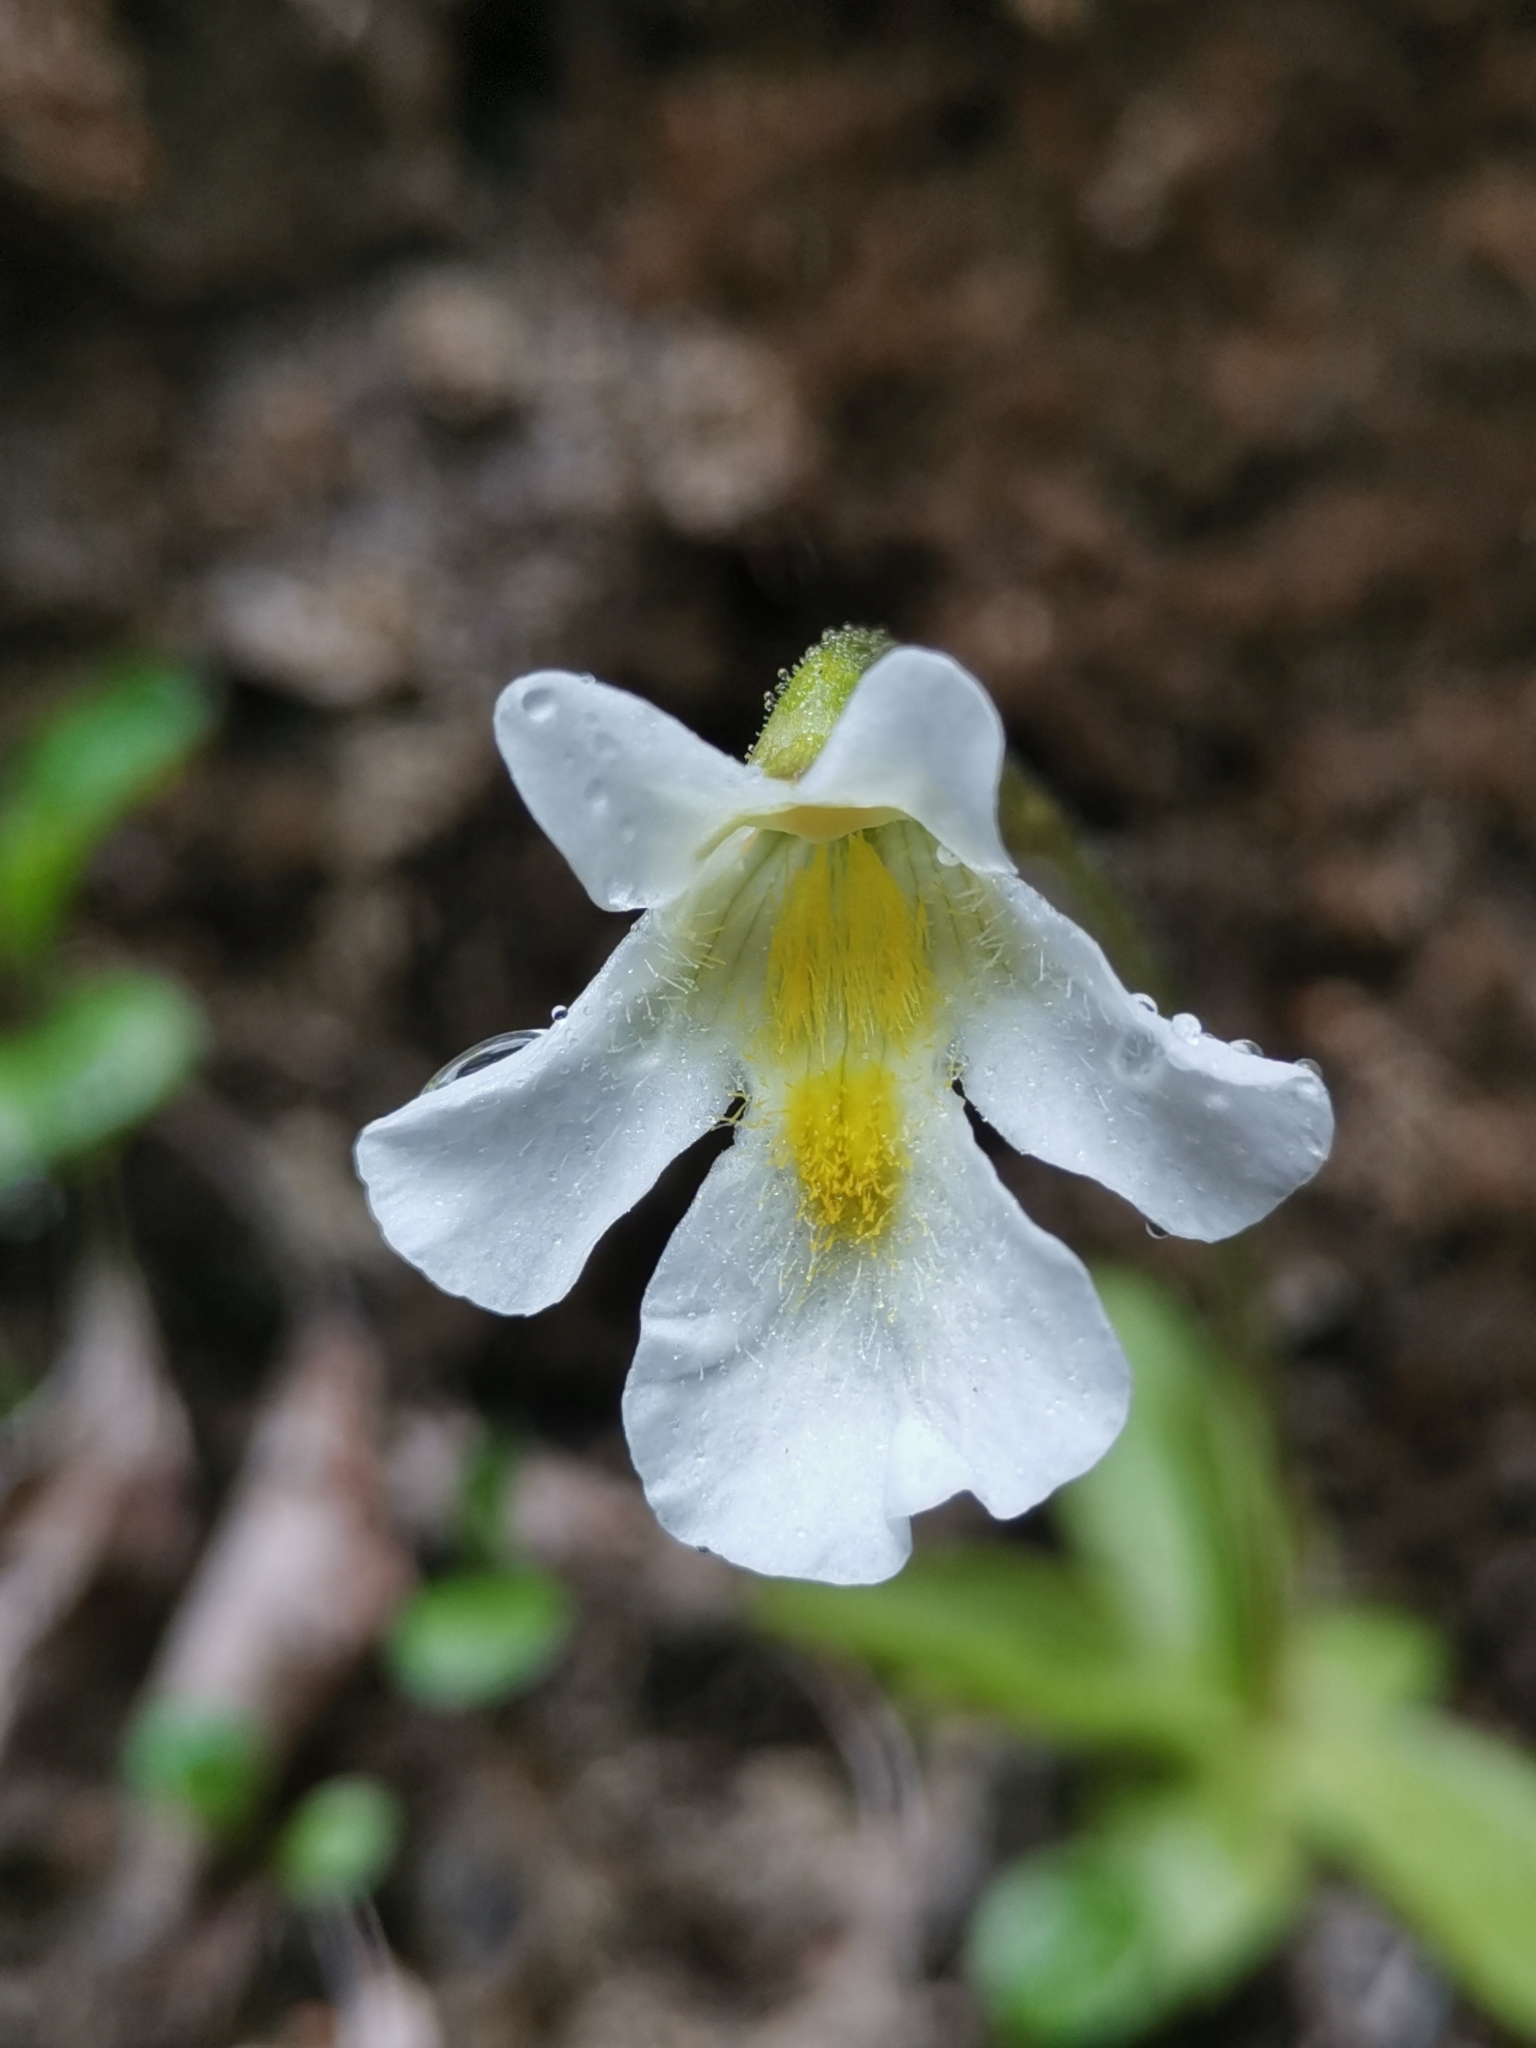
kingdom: Plantae
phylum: Tracheophyta
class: Magnoliopsida
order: Lamiales
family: Lentibulariaceae
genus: Pinguicula
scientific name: Pinguicula alpina
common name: Alpine butterwort
